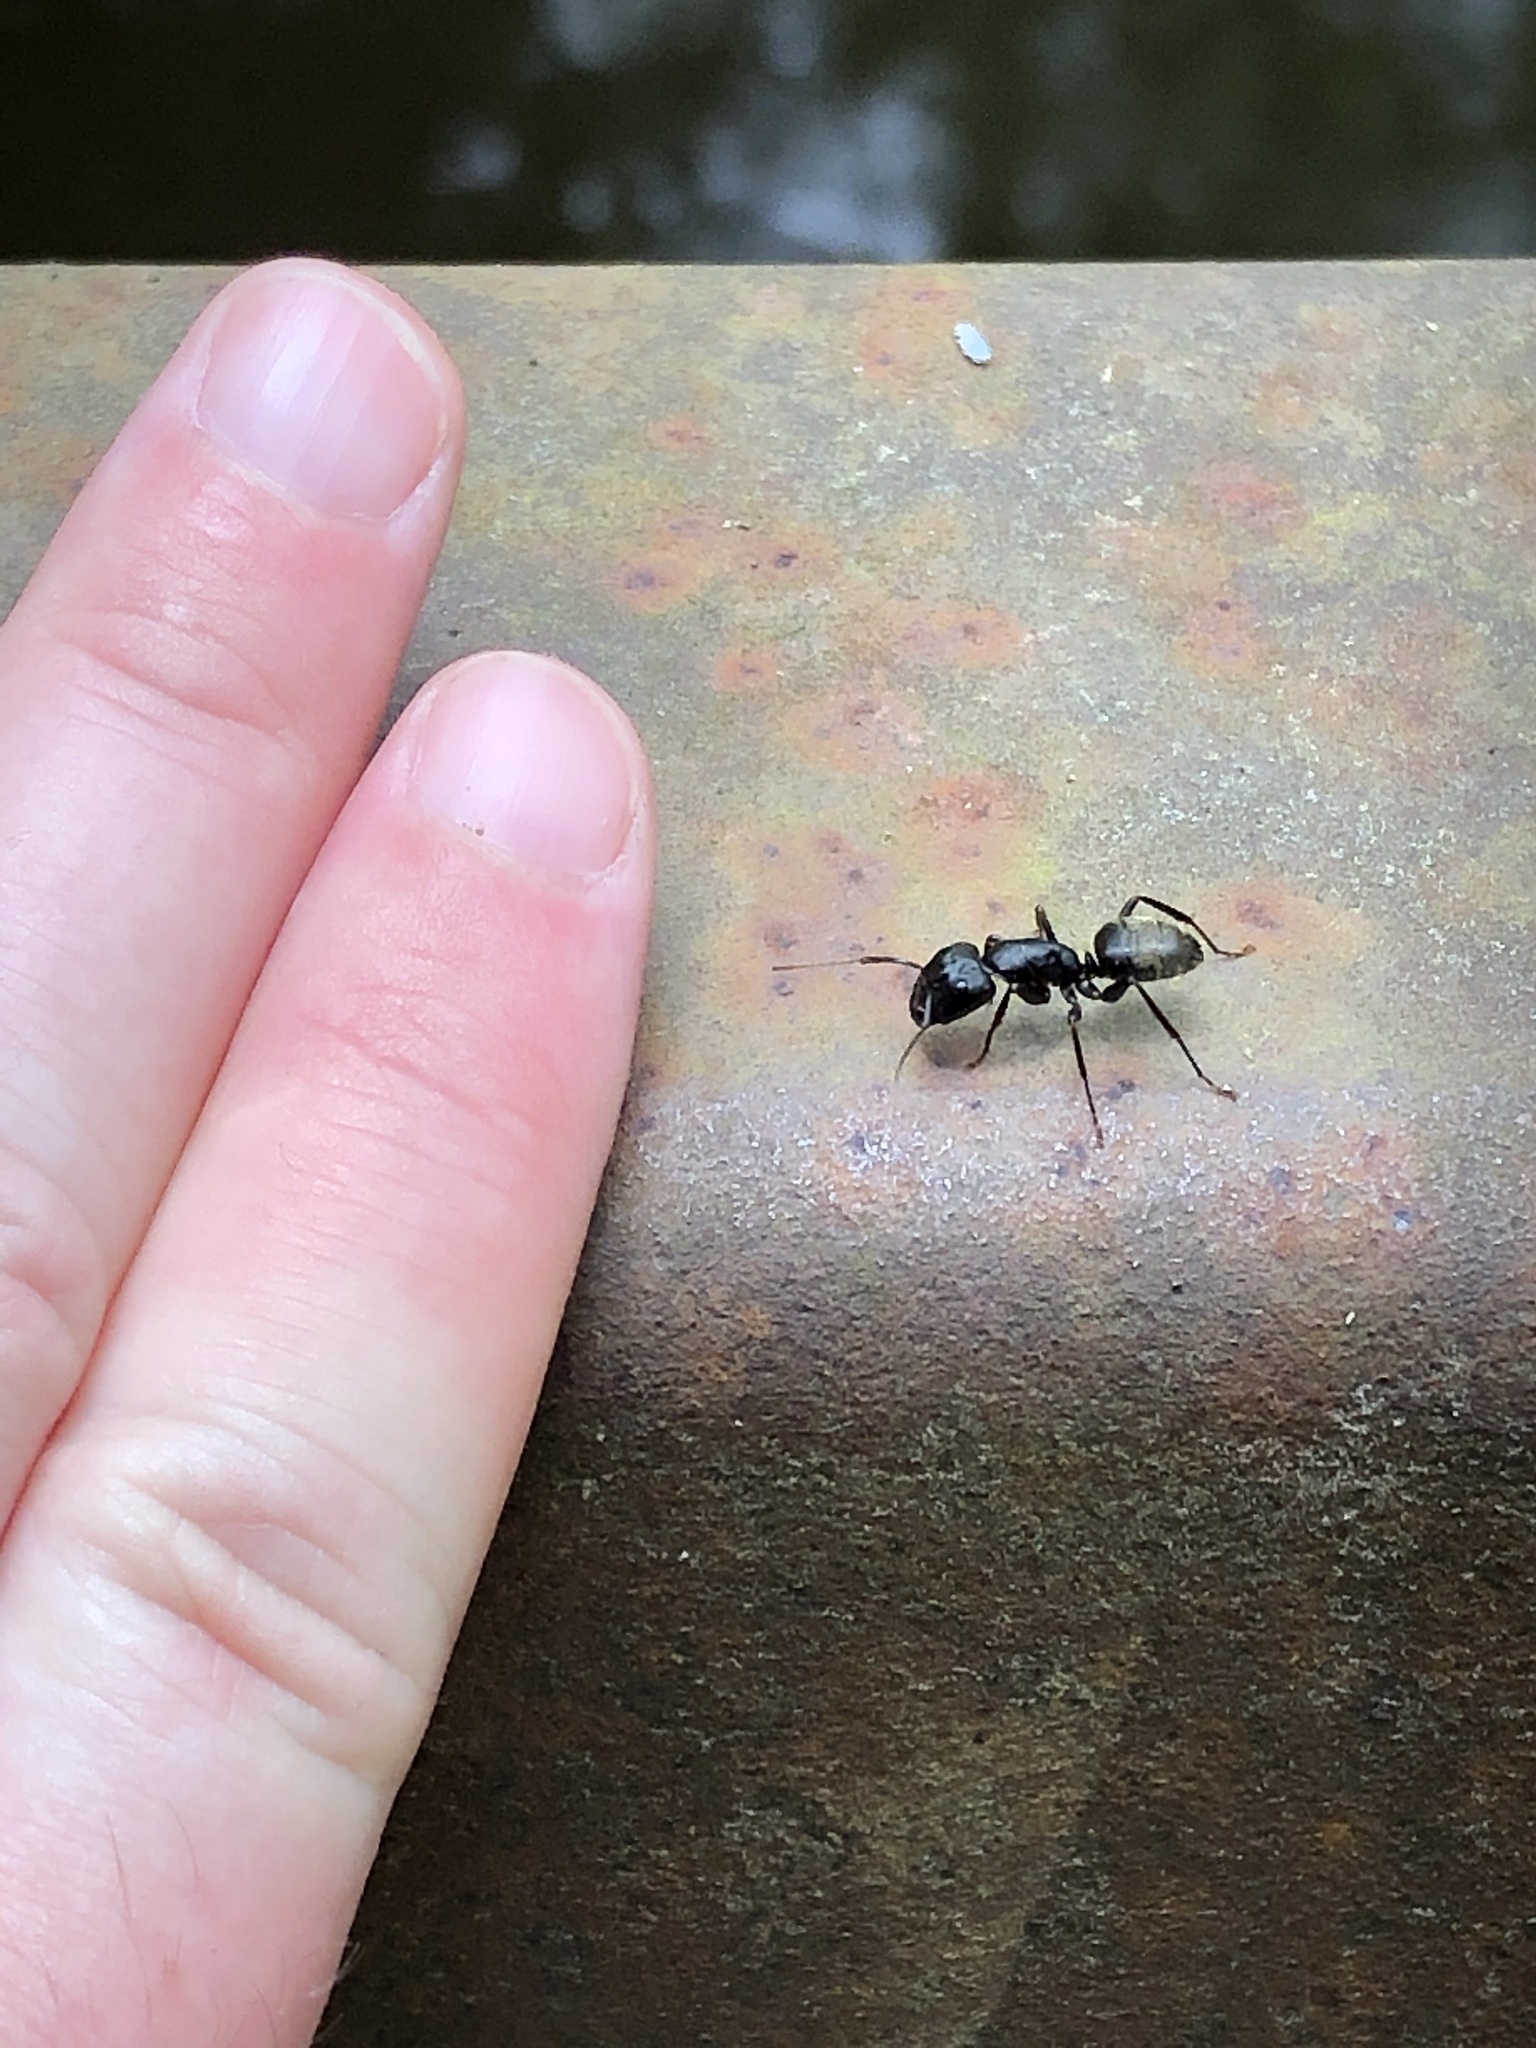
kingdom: Animalia
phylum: Arthropoda
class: Insecta
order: Hymenoptera
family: Formicidae
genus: Camponotus
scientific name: Camponotus pennsylvanicus
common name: Black carpenter ant
